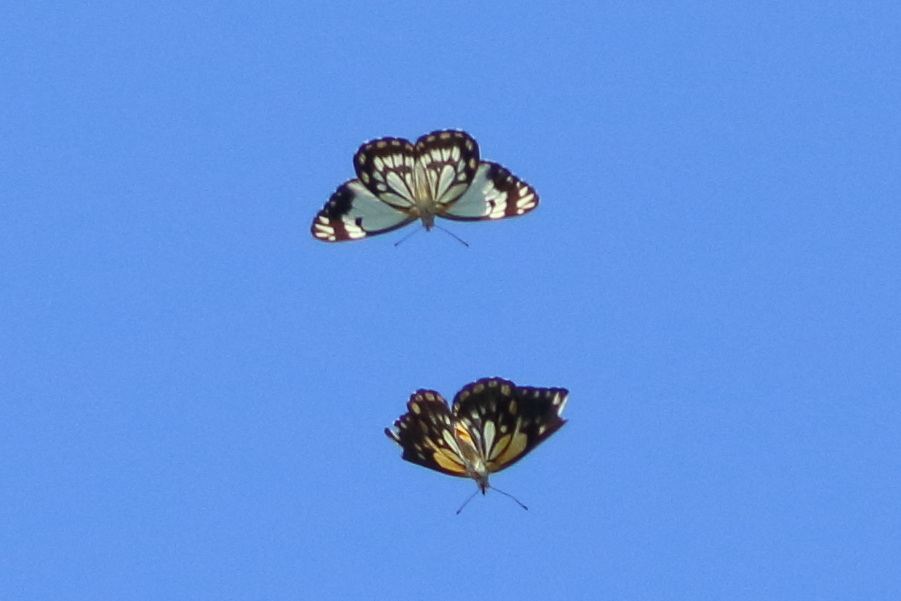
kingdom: Animalia
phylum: Arthropoda
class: Insecta
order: Lepidoptera
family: Pieridae
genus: Belenois
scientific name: Belenois java
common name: Caper white
